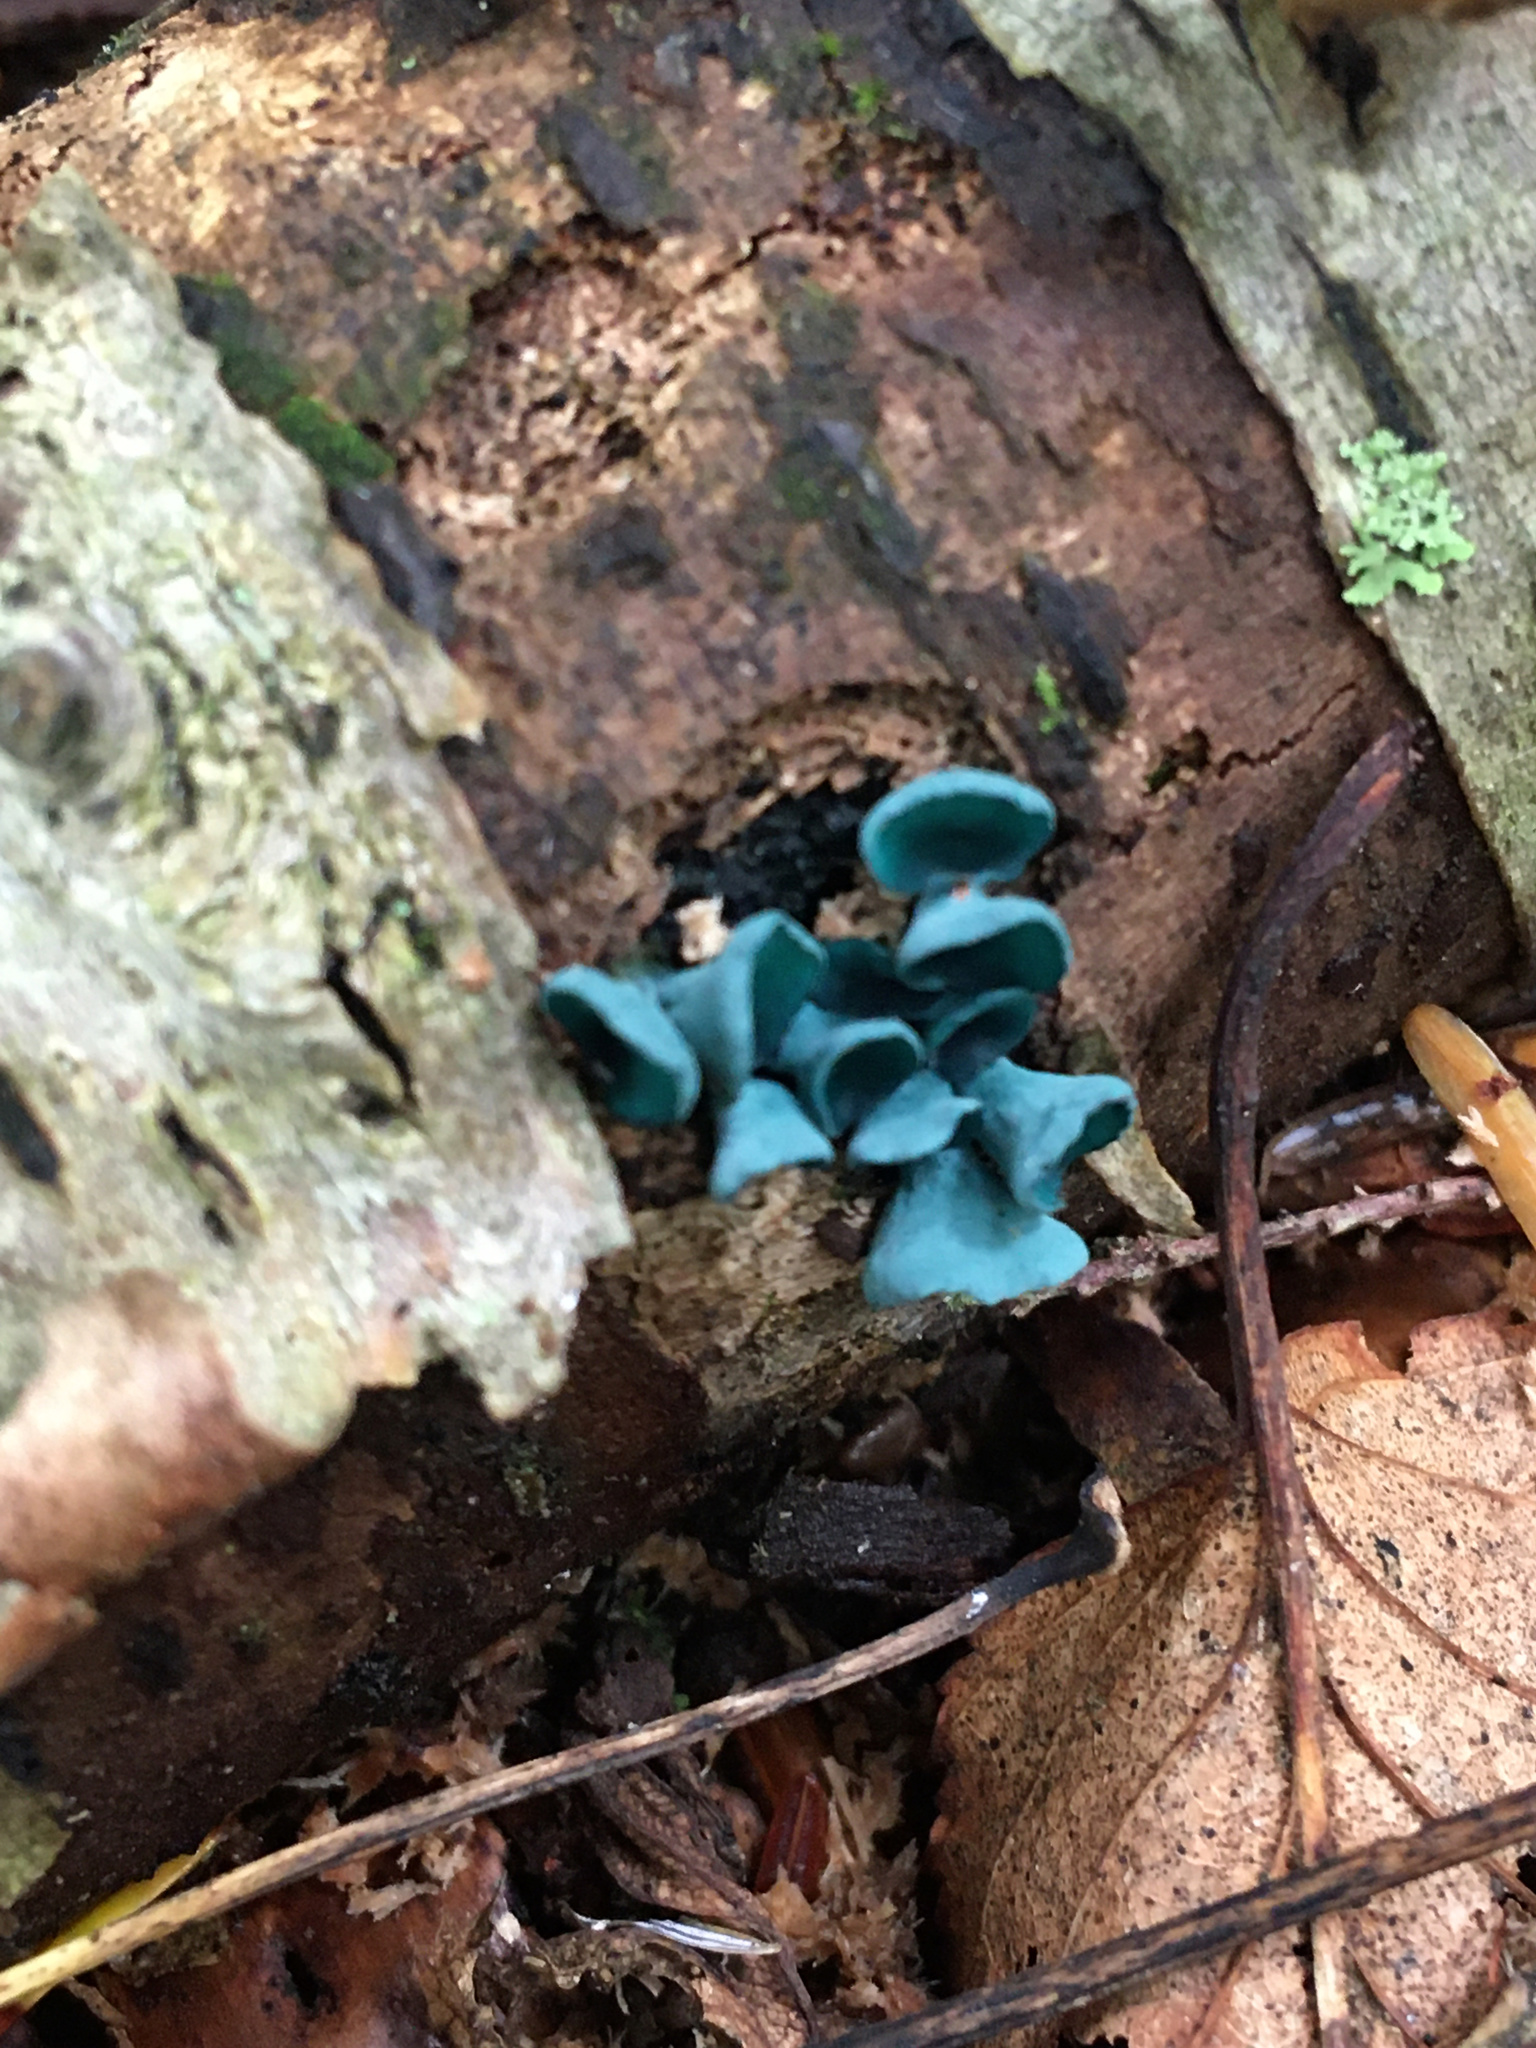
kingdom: Fungi
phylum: Ascomycota
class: Leotiomycetes
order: Helotiales
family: Chlorociboriaceae
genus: Chlorociboria
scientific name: Chlorociboria aeruginascens
